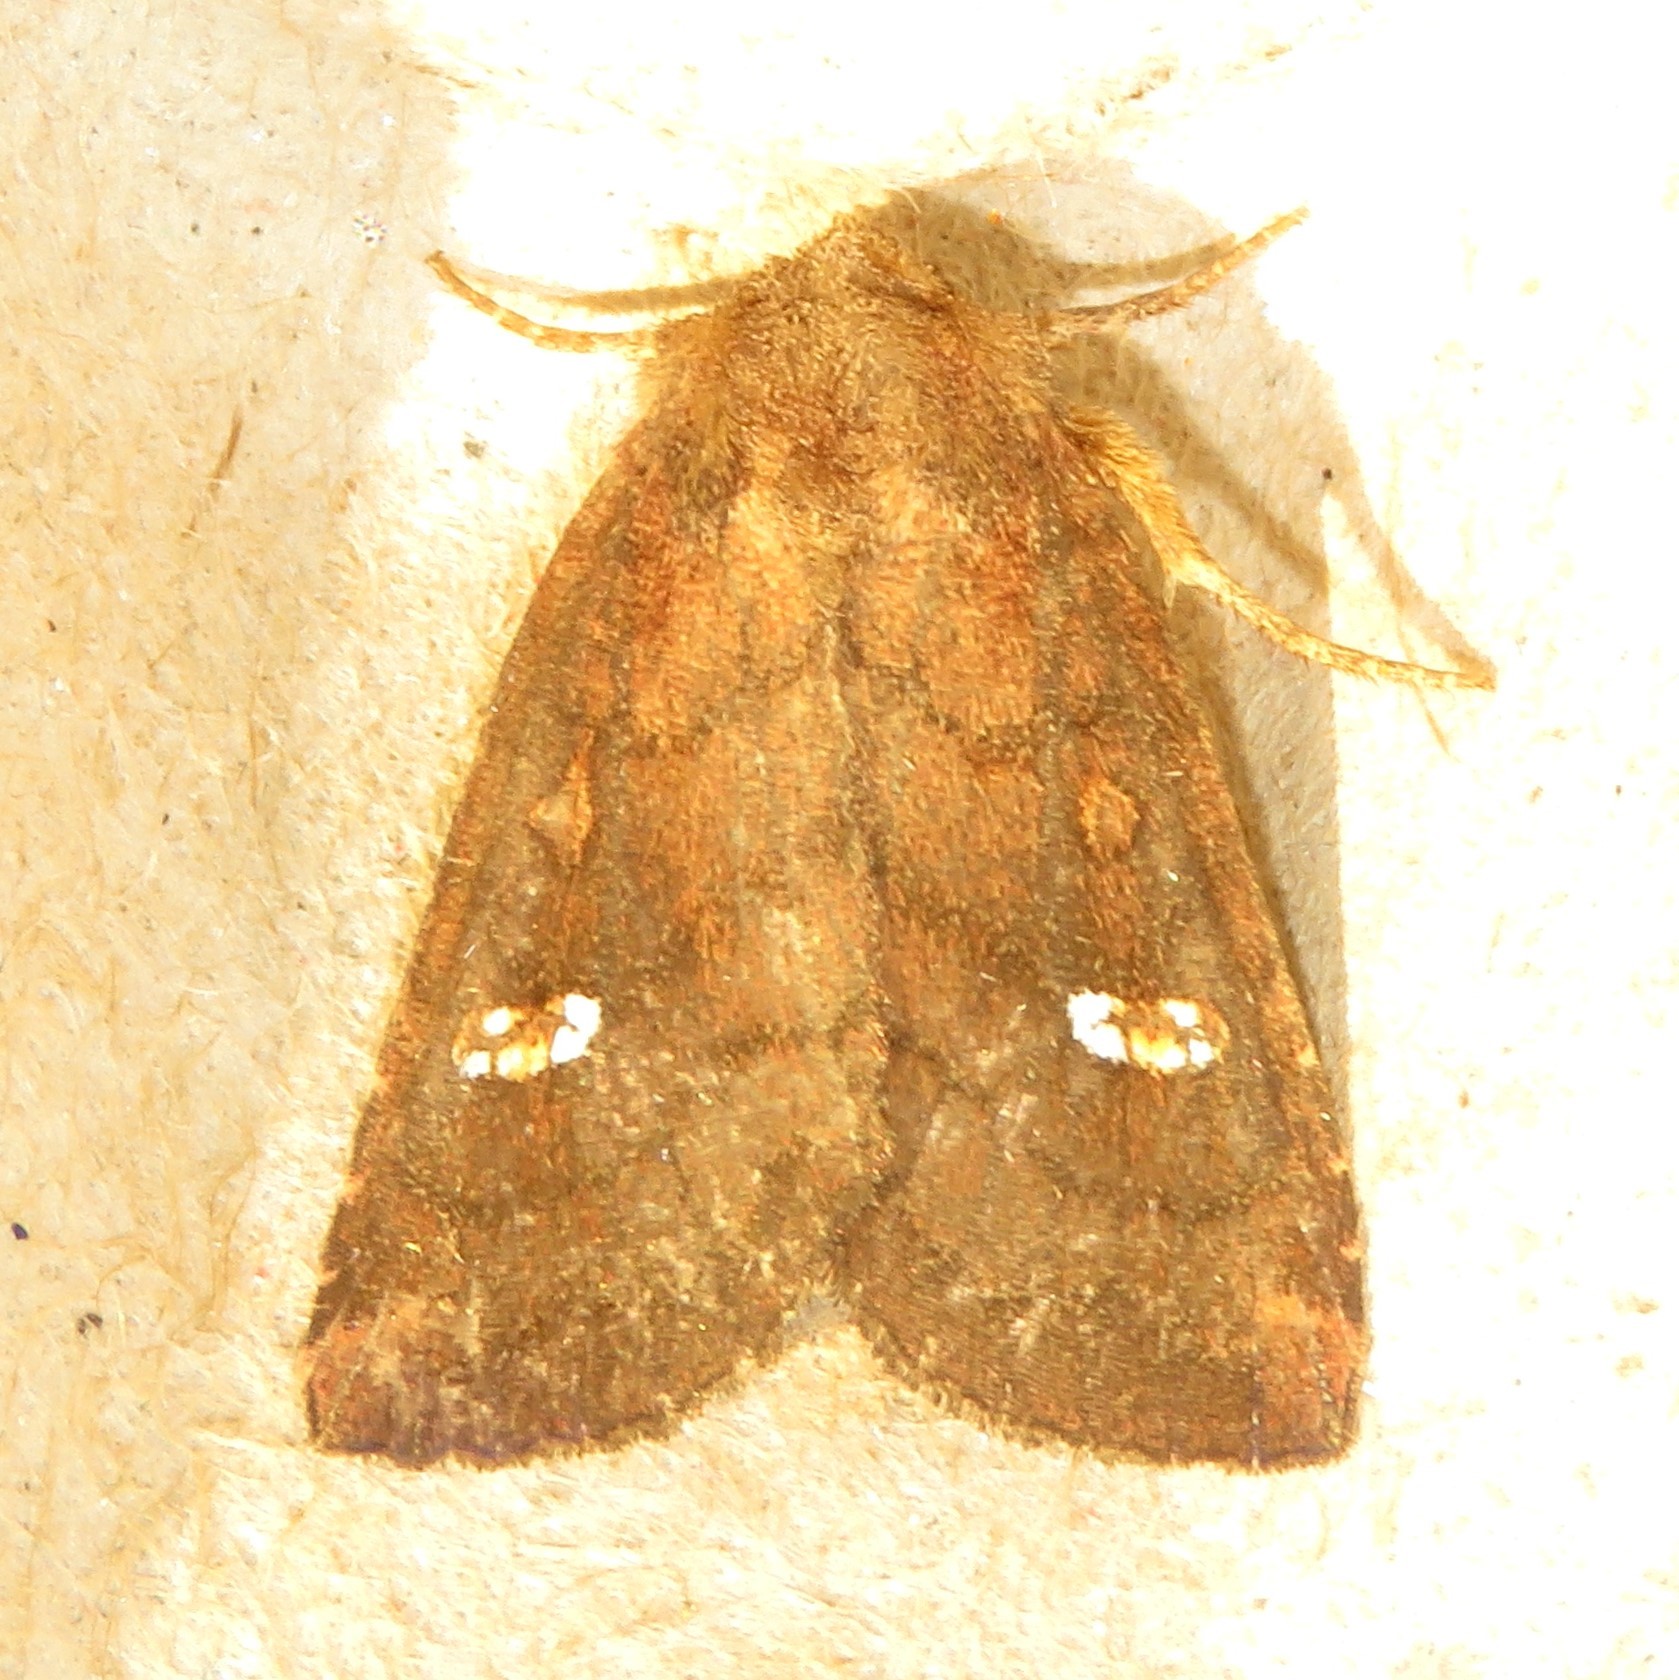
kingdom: Animalia
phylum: Arthropoda
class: Insecta
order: Lepidoptera
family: Noctuidae
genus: Tricholita
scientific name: Tricholita signata
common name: Signate quaker
